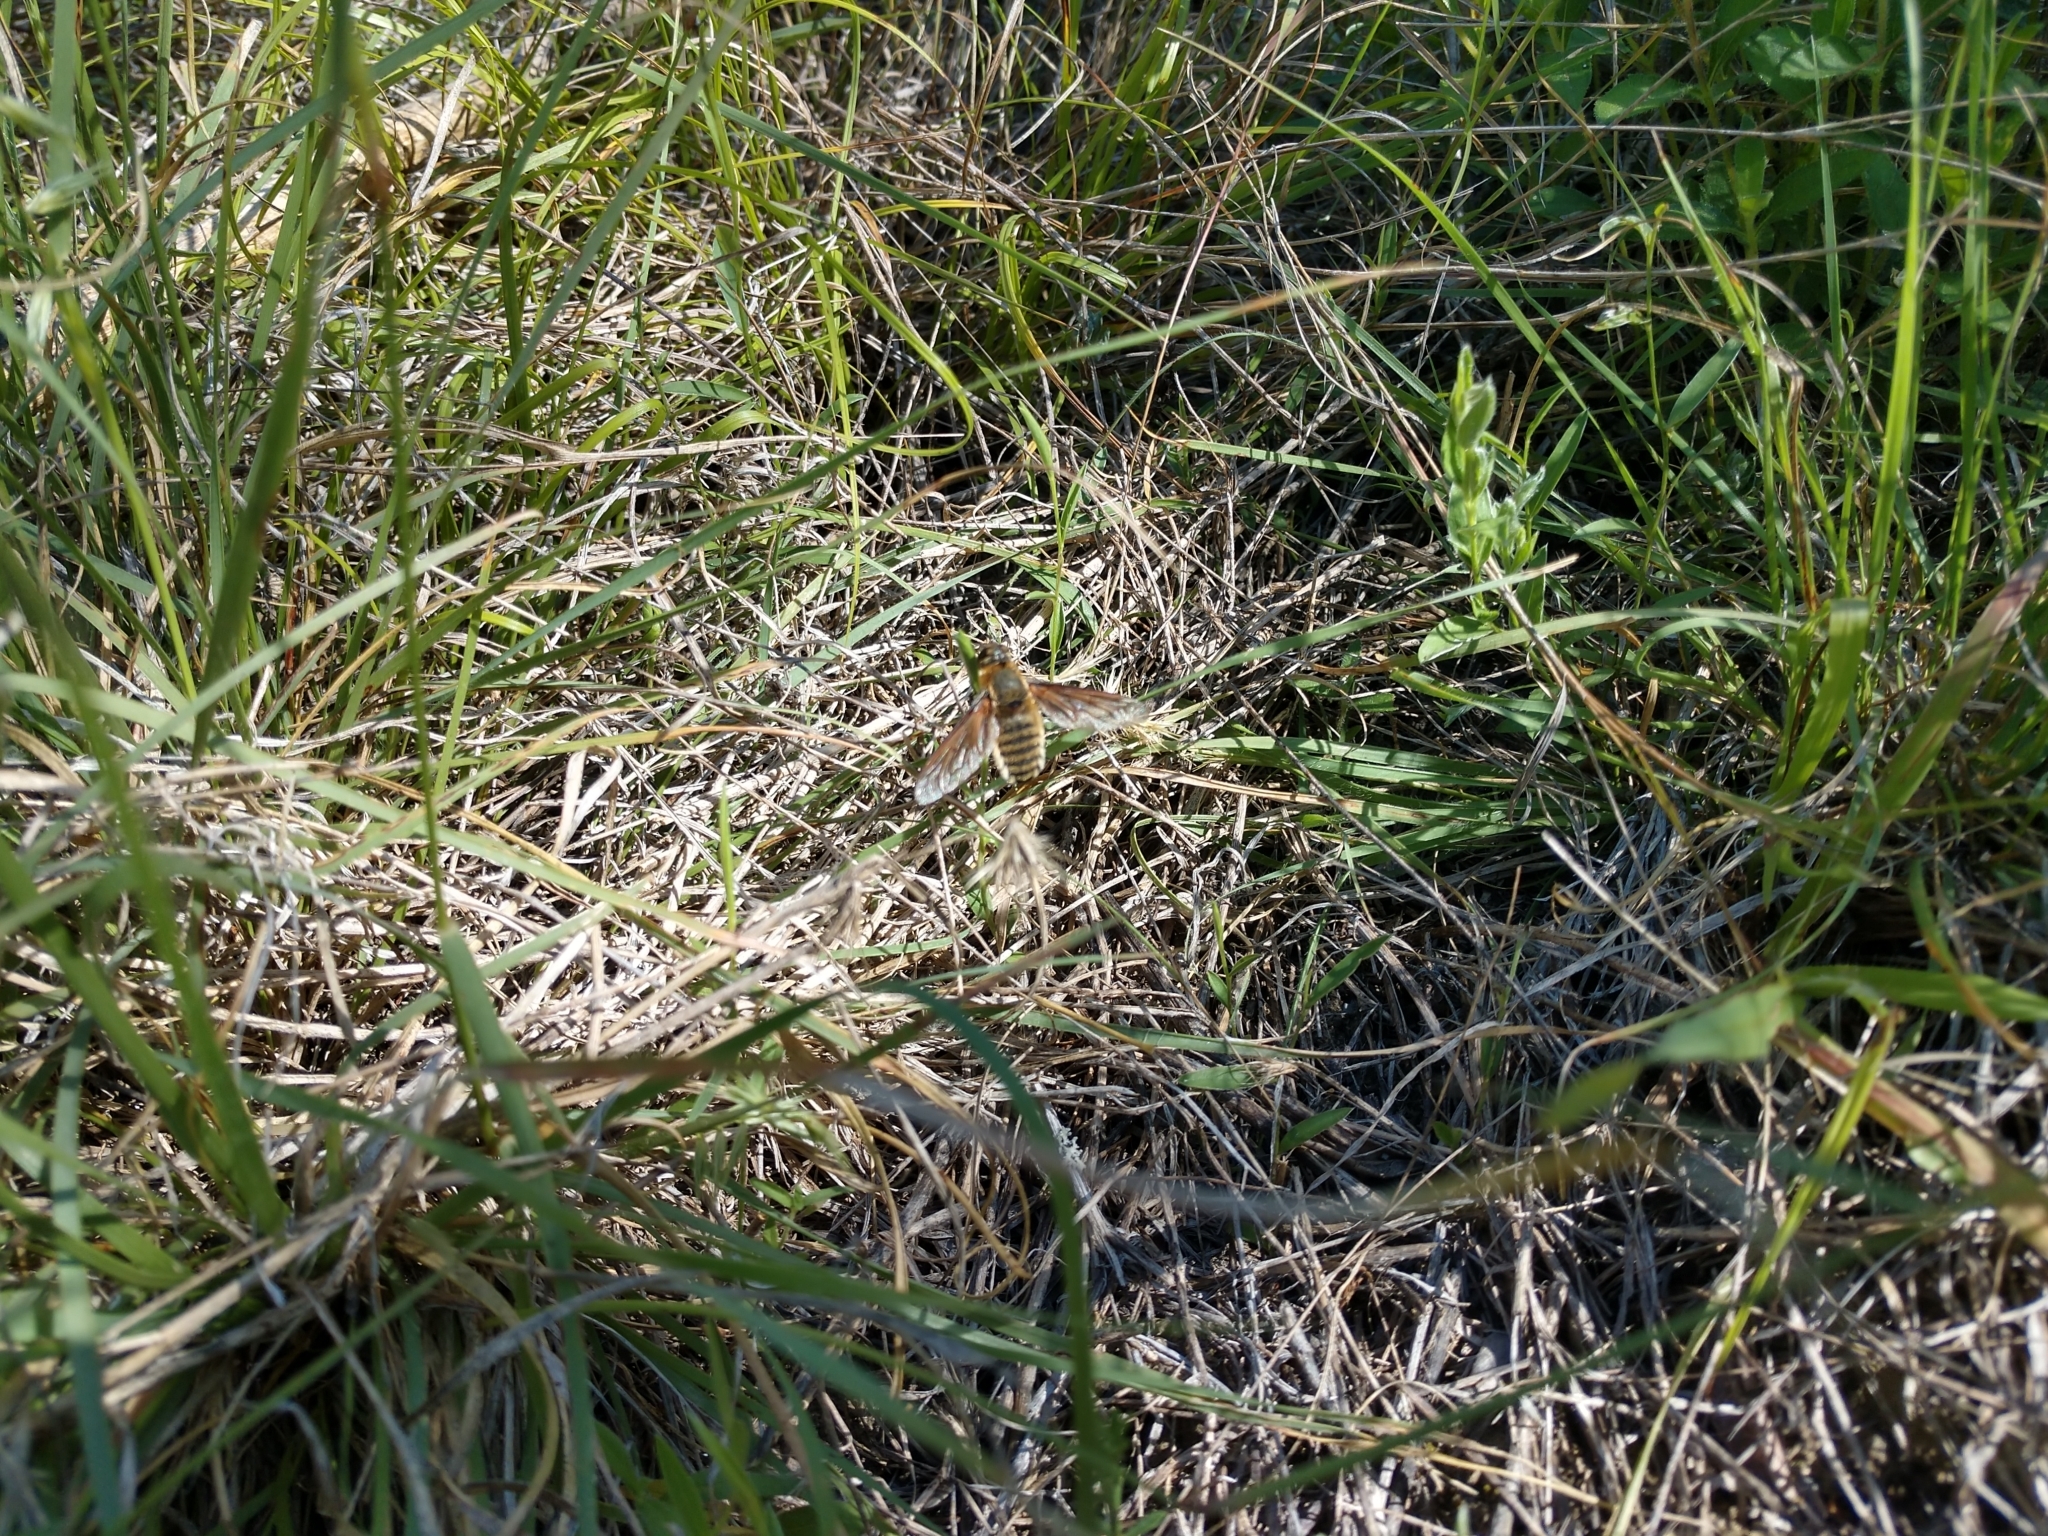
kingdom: Animalia
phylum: Arthropoda
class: Insecta
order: Diptera
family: Bombyliidae
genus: Poecilanthrax
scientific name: Poecilanthrax lucifer
